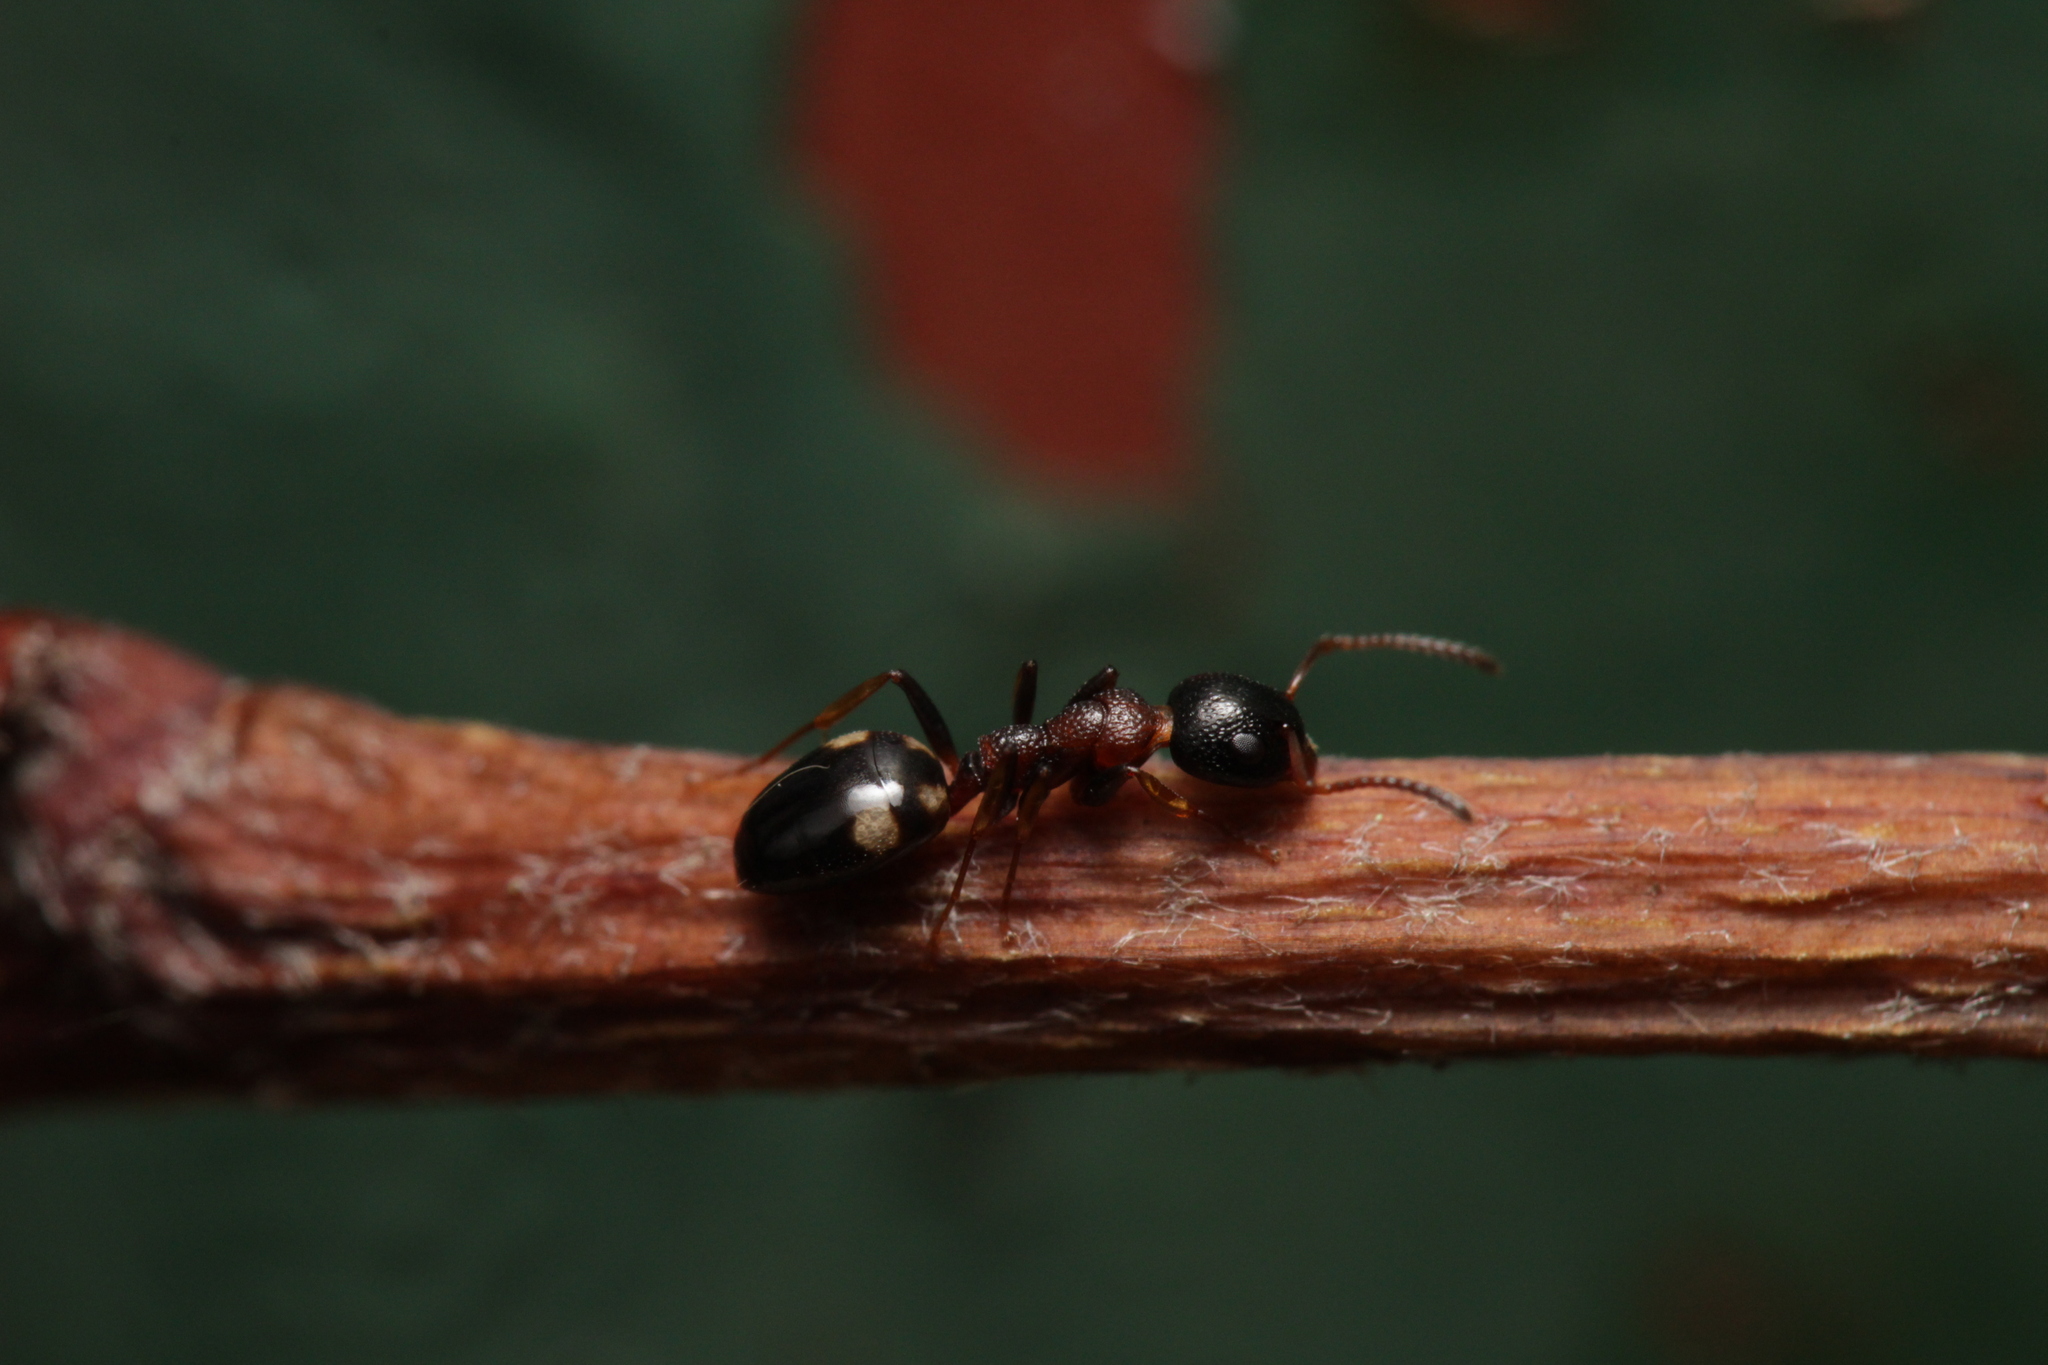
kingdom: Animalia
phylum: Arthropoda
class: Insecta
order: Hymenoptera
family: Formicidae
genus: Dolichoderus
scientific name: Dolichoderus quadripunctatus
